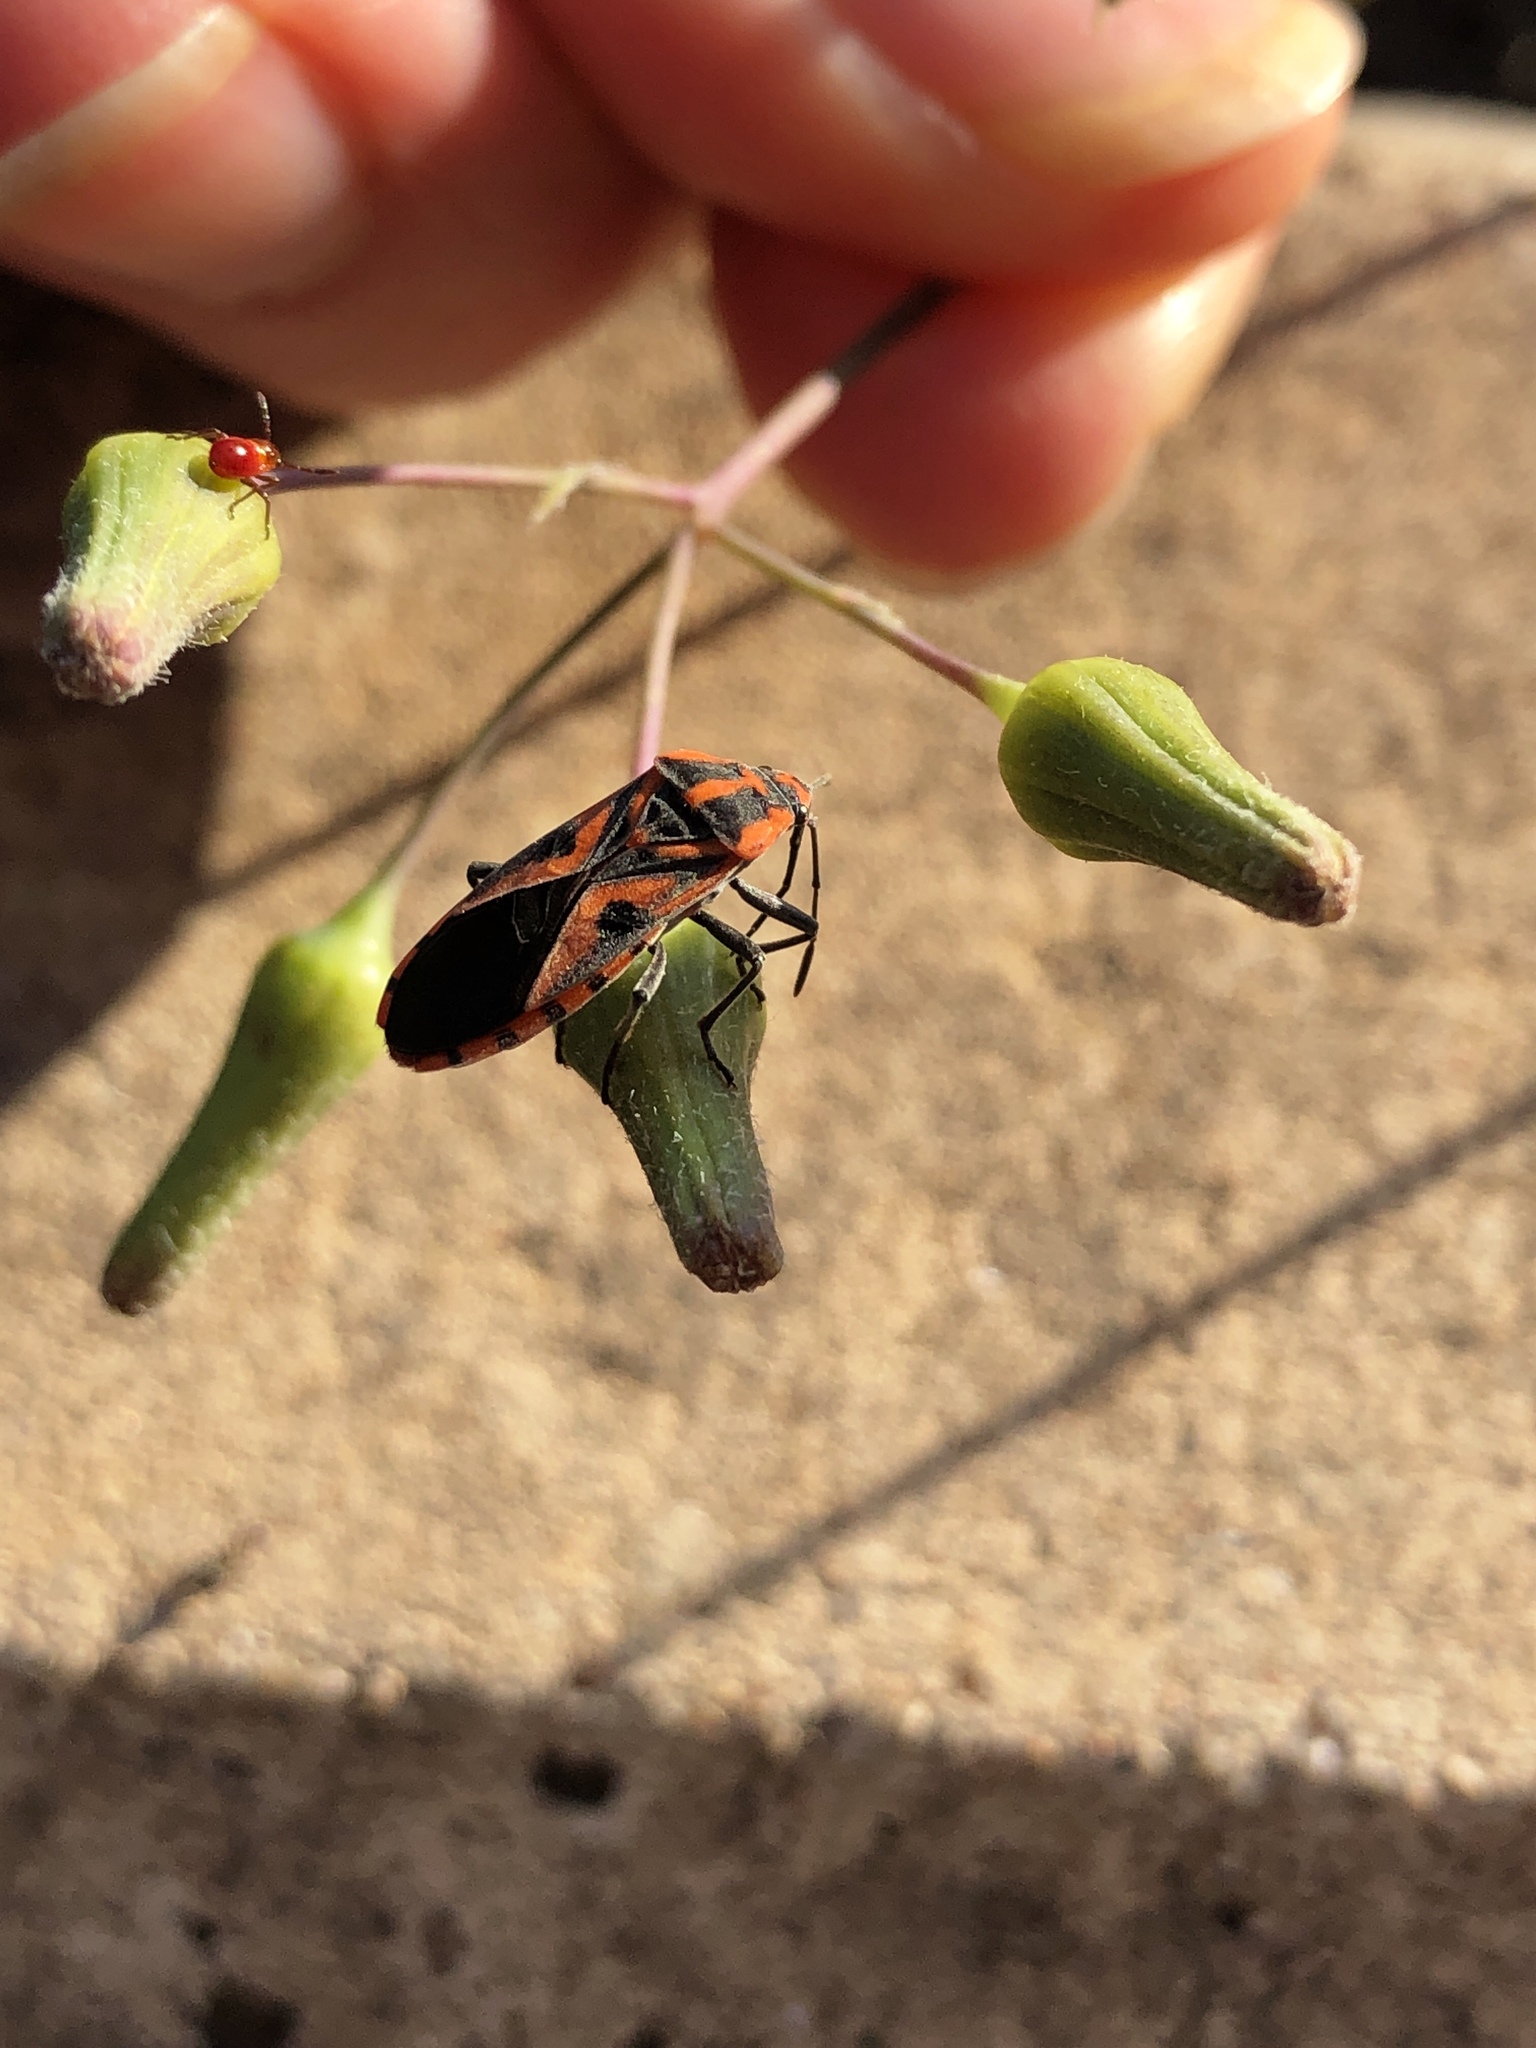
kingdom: Animalia
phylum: Arthropoda
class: Insecta
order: Hemiptera
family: Lygaeidae
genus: Spilostethus
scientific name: Spilostethus hospes
